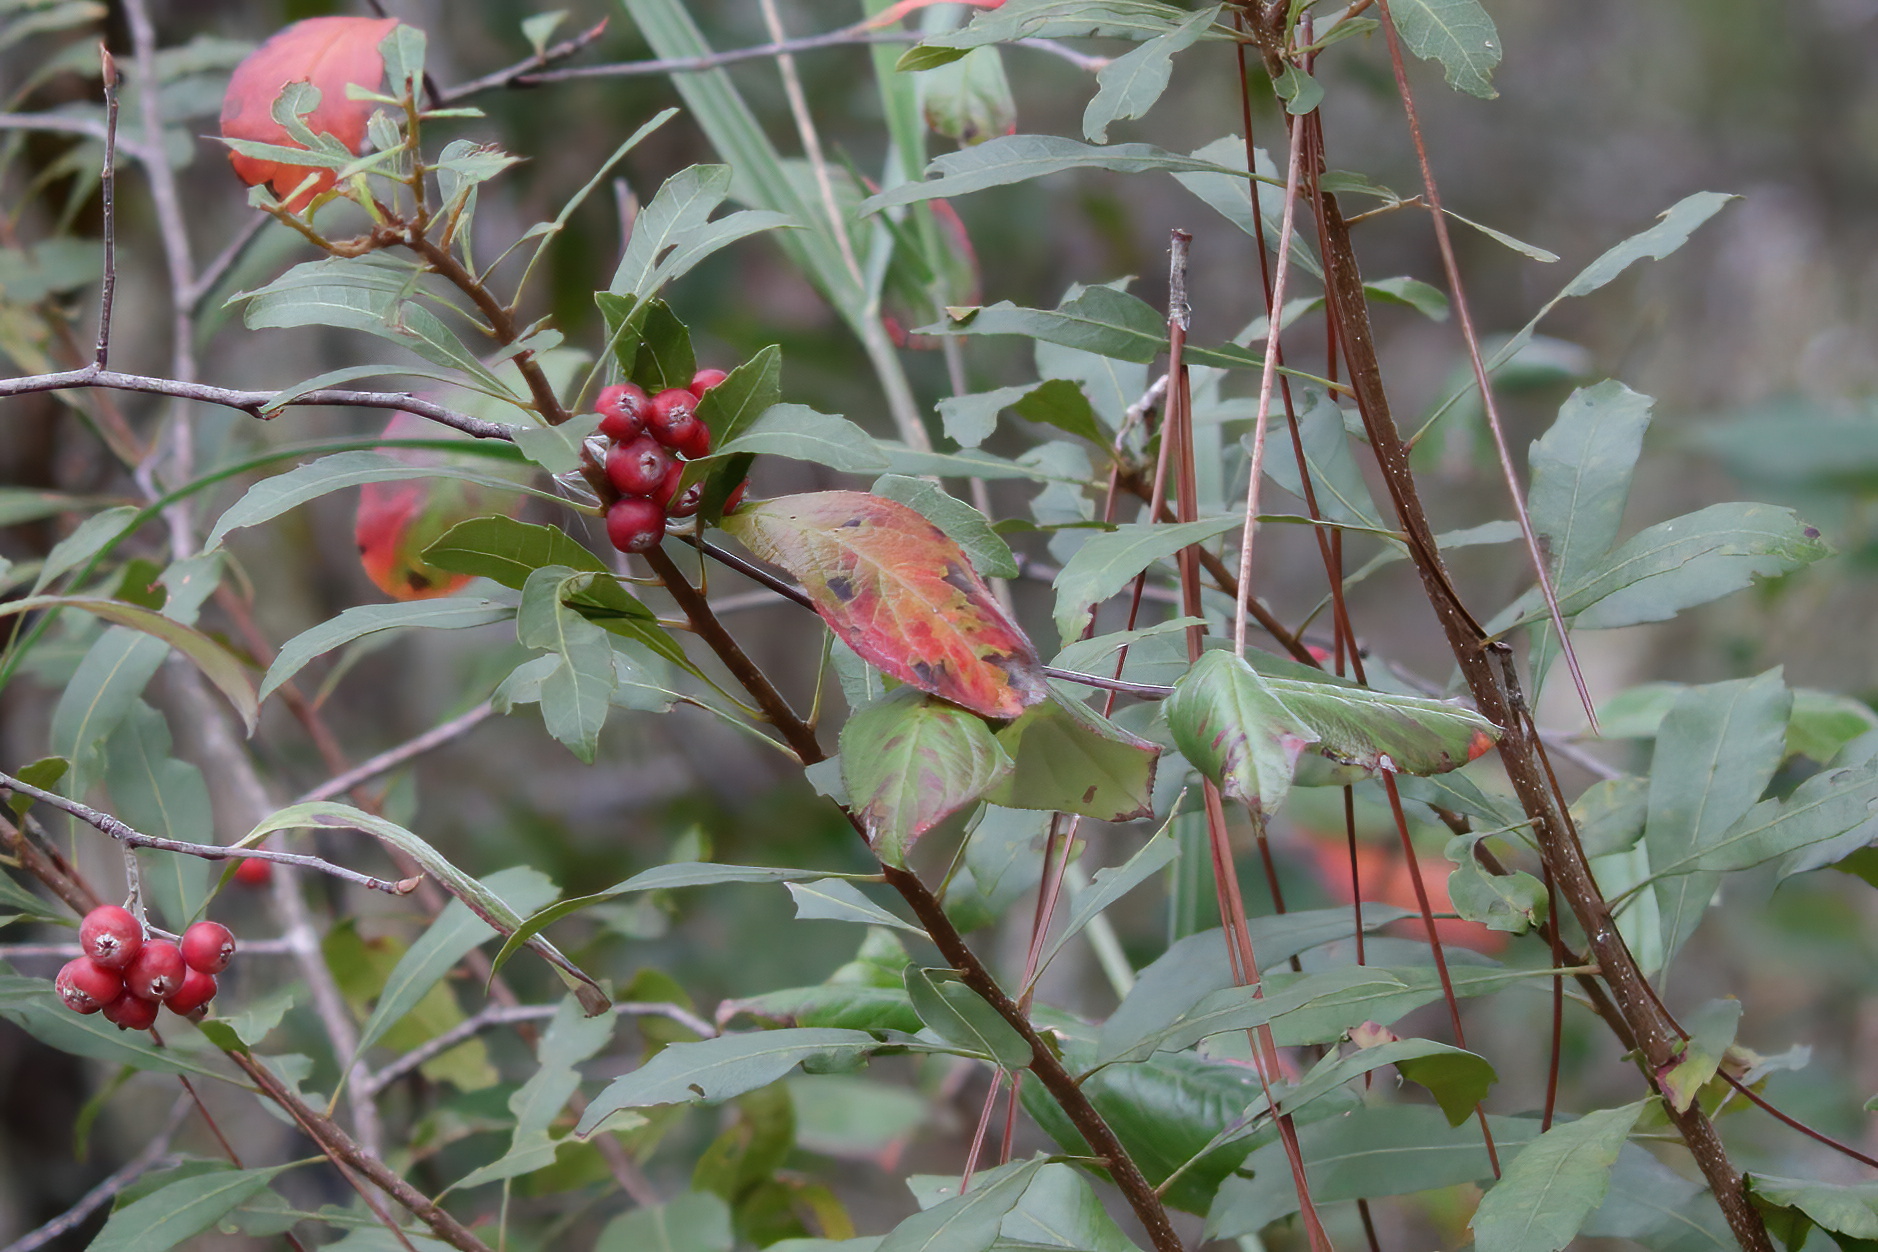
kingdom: Plantae
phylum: Tracheophyta
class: Magnoliopsida
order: Rosales
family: Rosaceae
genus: Aronia
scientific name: Aronia arbutifolia
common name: Red chokeberry
